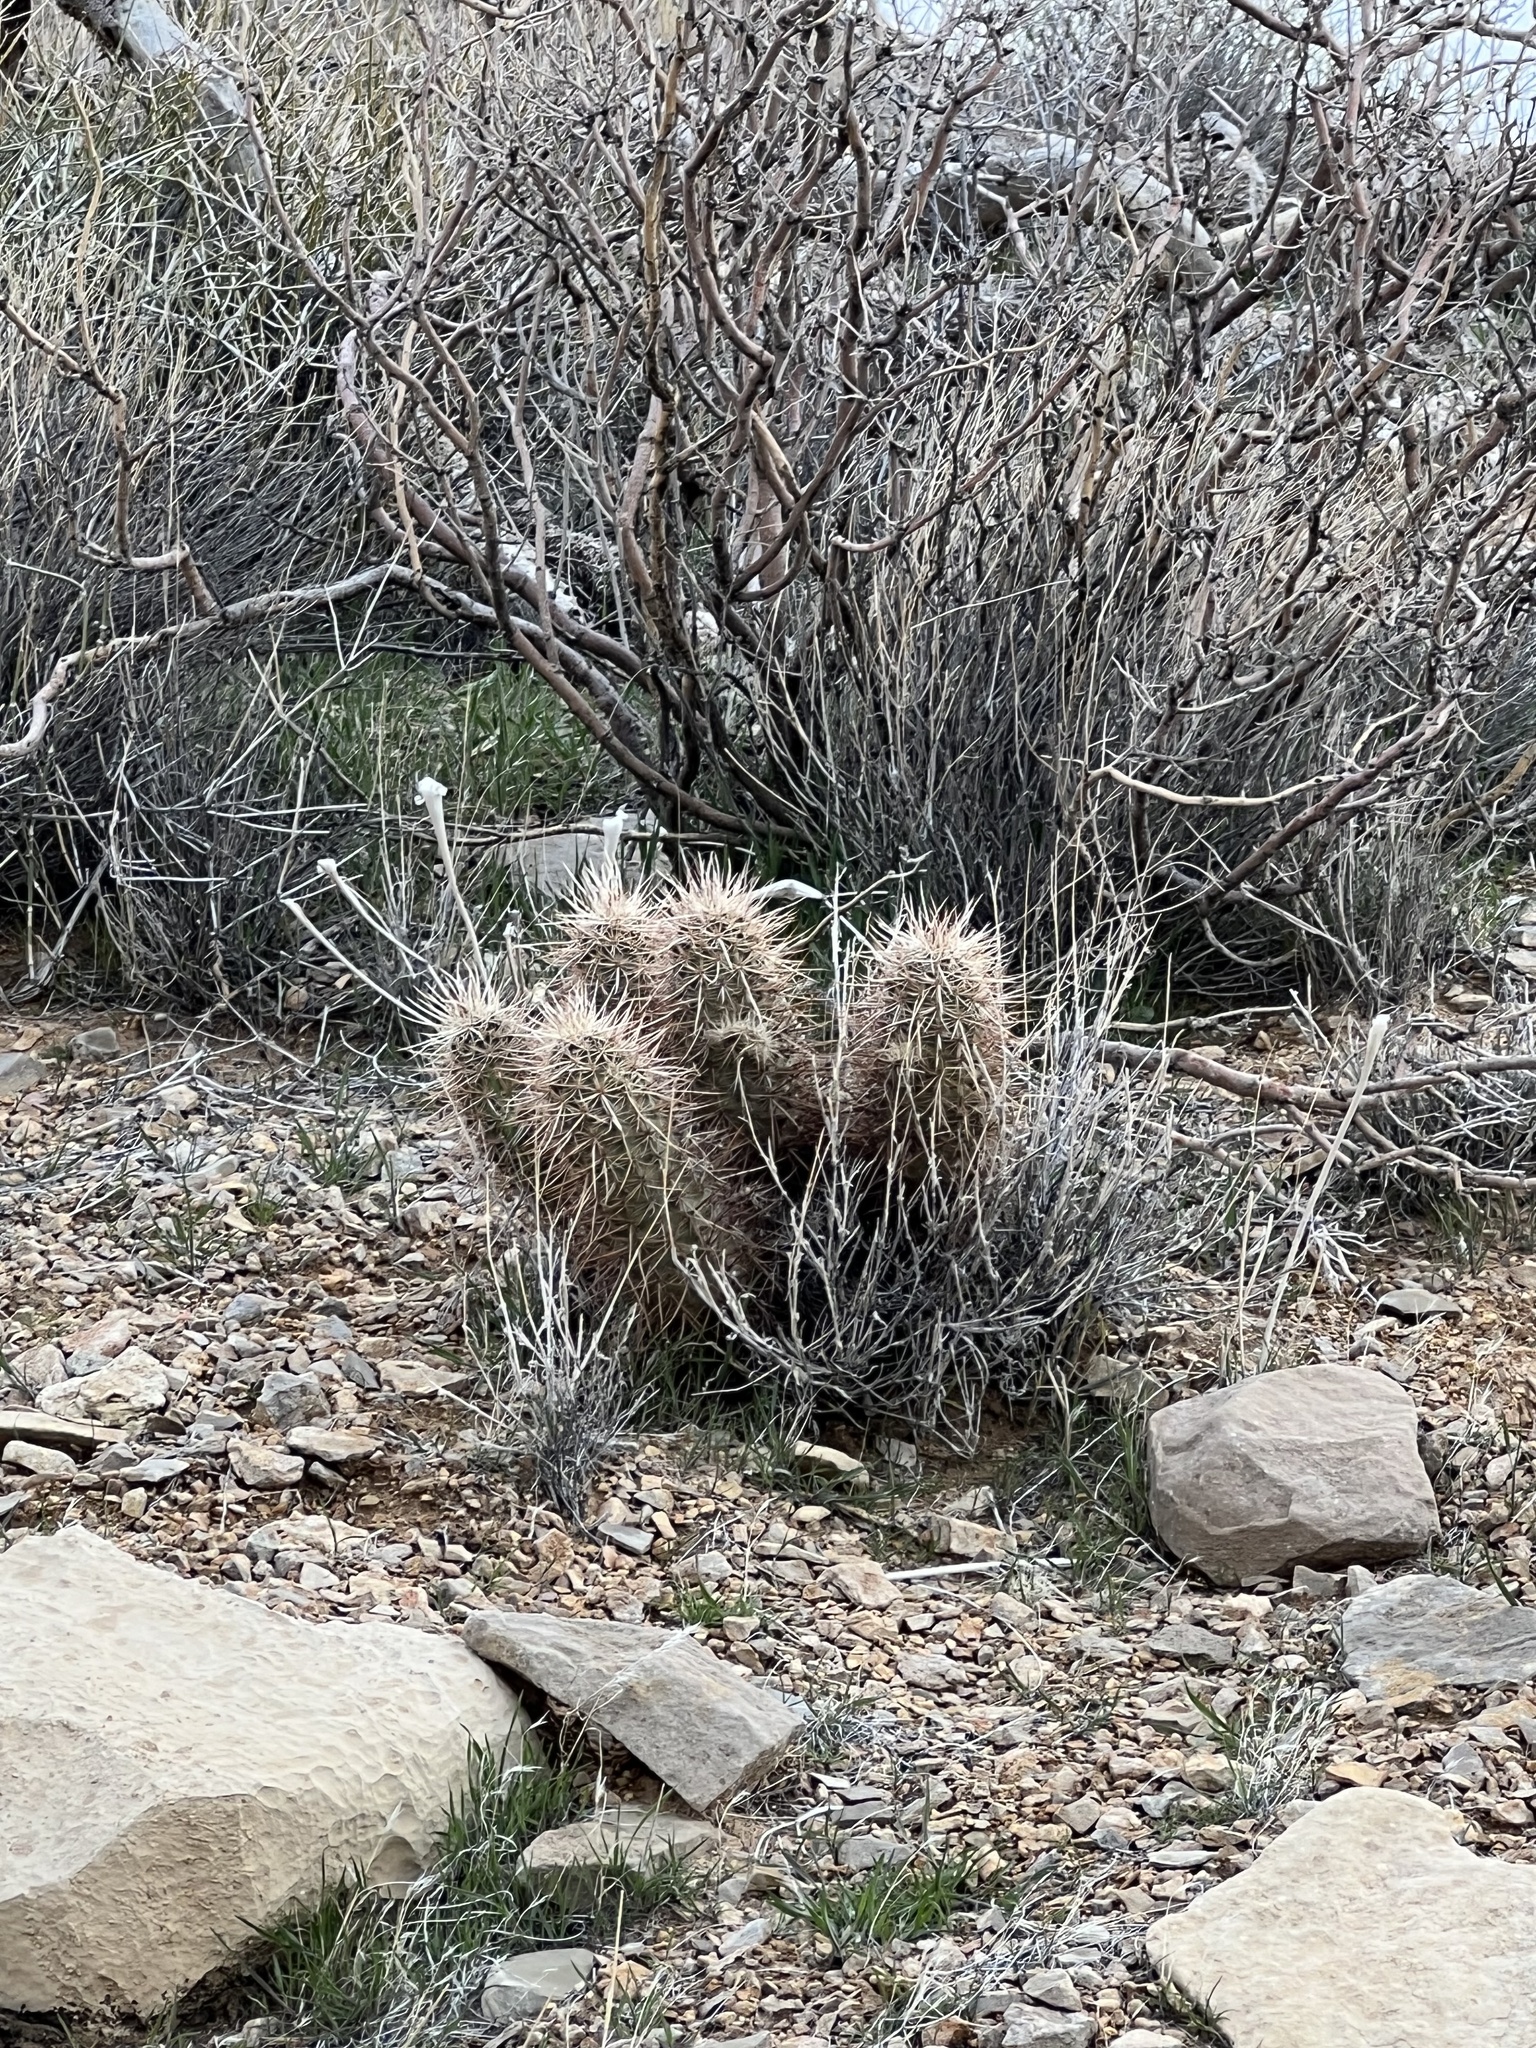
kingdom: Plantae
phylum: Tracheophyta
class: Magnoliopsida
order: Caryophyllales
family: Cactaceae
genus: Echinocereus
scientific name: Echinocereus engelmannii
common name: Engelmann's hedgehog cactus
